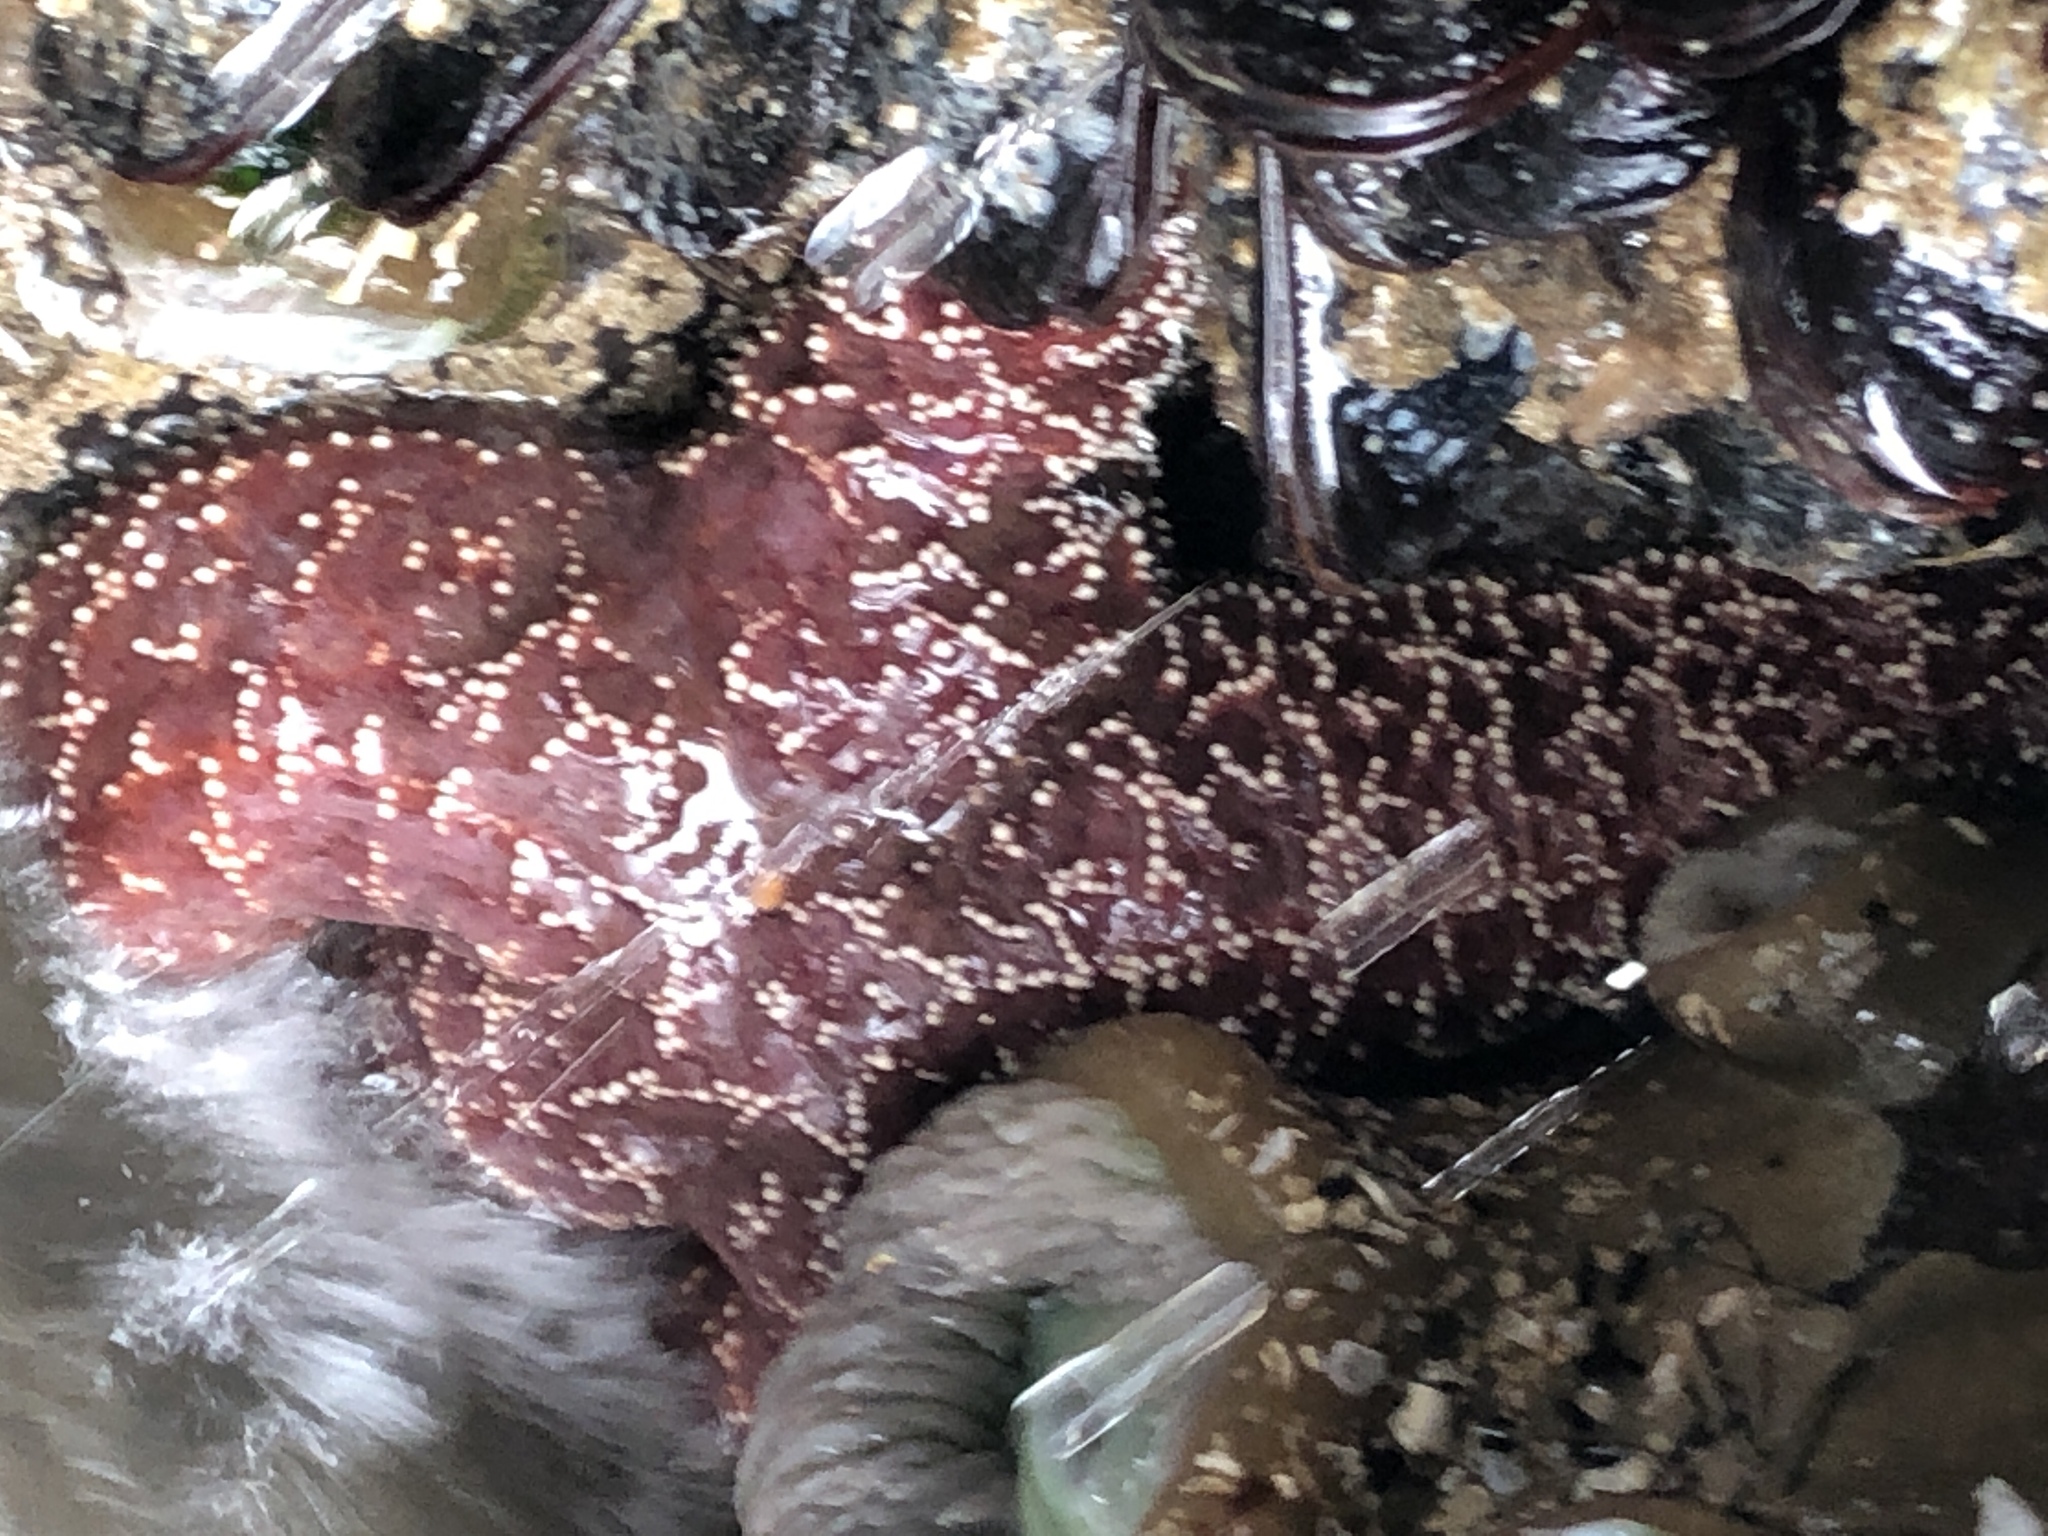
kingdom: Animalia
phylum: Echinodermata
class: Asteroidea
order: Forcipulatida
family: Asteriidae
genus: Pisaster
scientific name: Pisaster ochraceus
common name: Ochre stars
